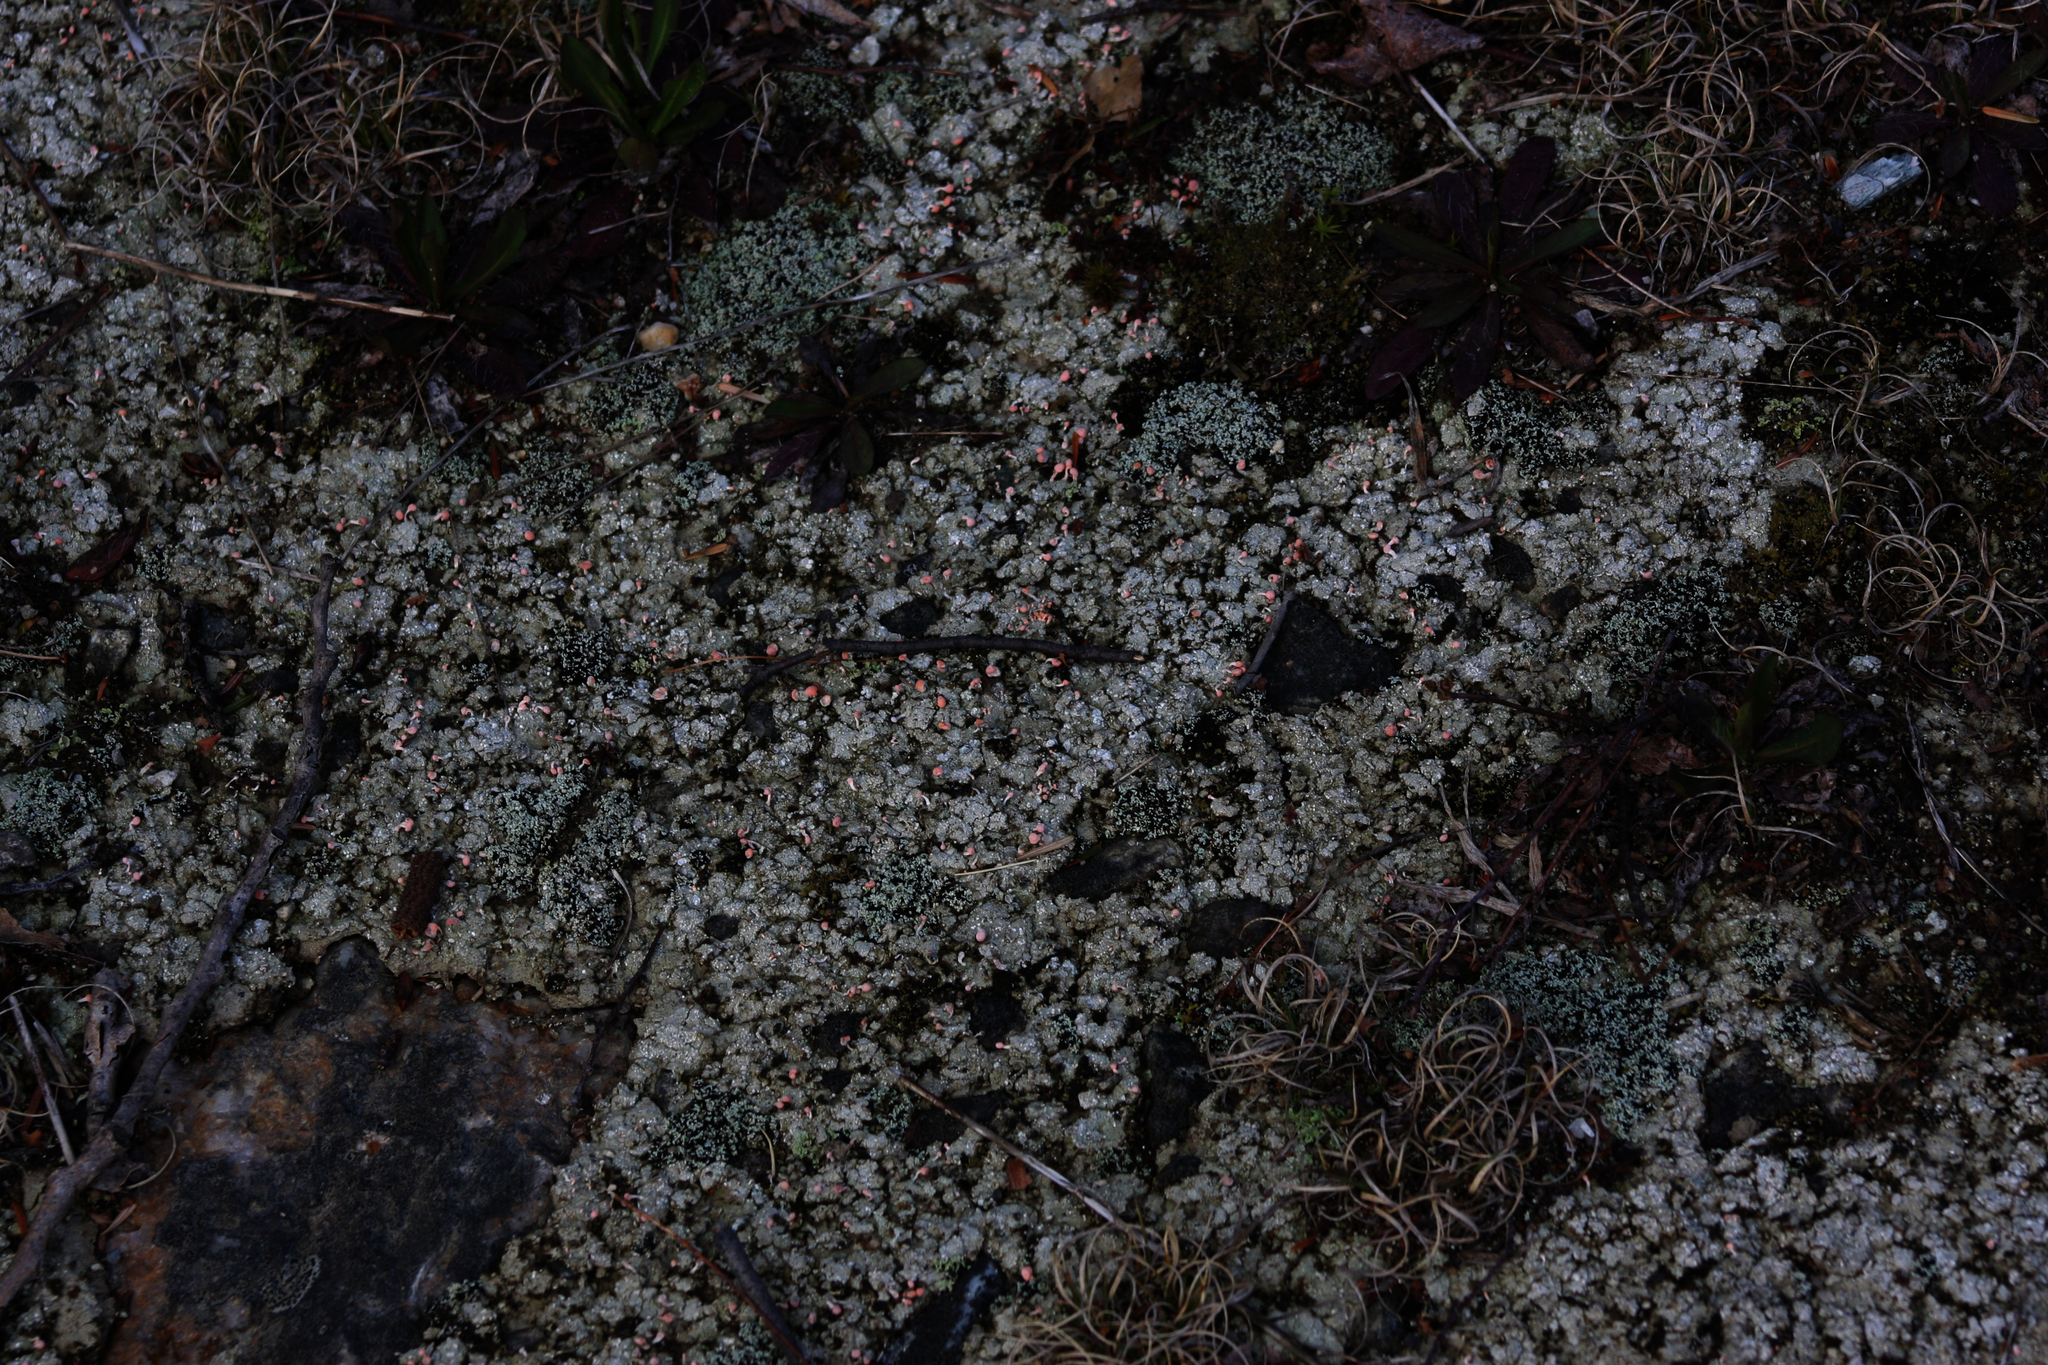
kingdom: Fungi
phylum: Ascomycota
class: Lecanoromycetes
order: Pertusariales
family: Icmadophilaceae
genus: Dibaeis
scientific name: Dibaeis baeomyces
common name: Pink earth lichen
